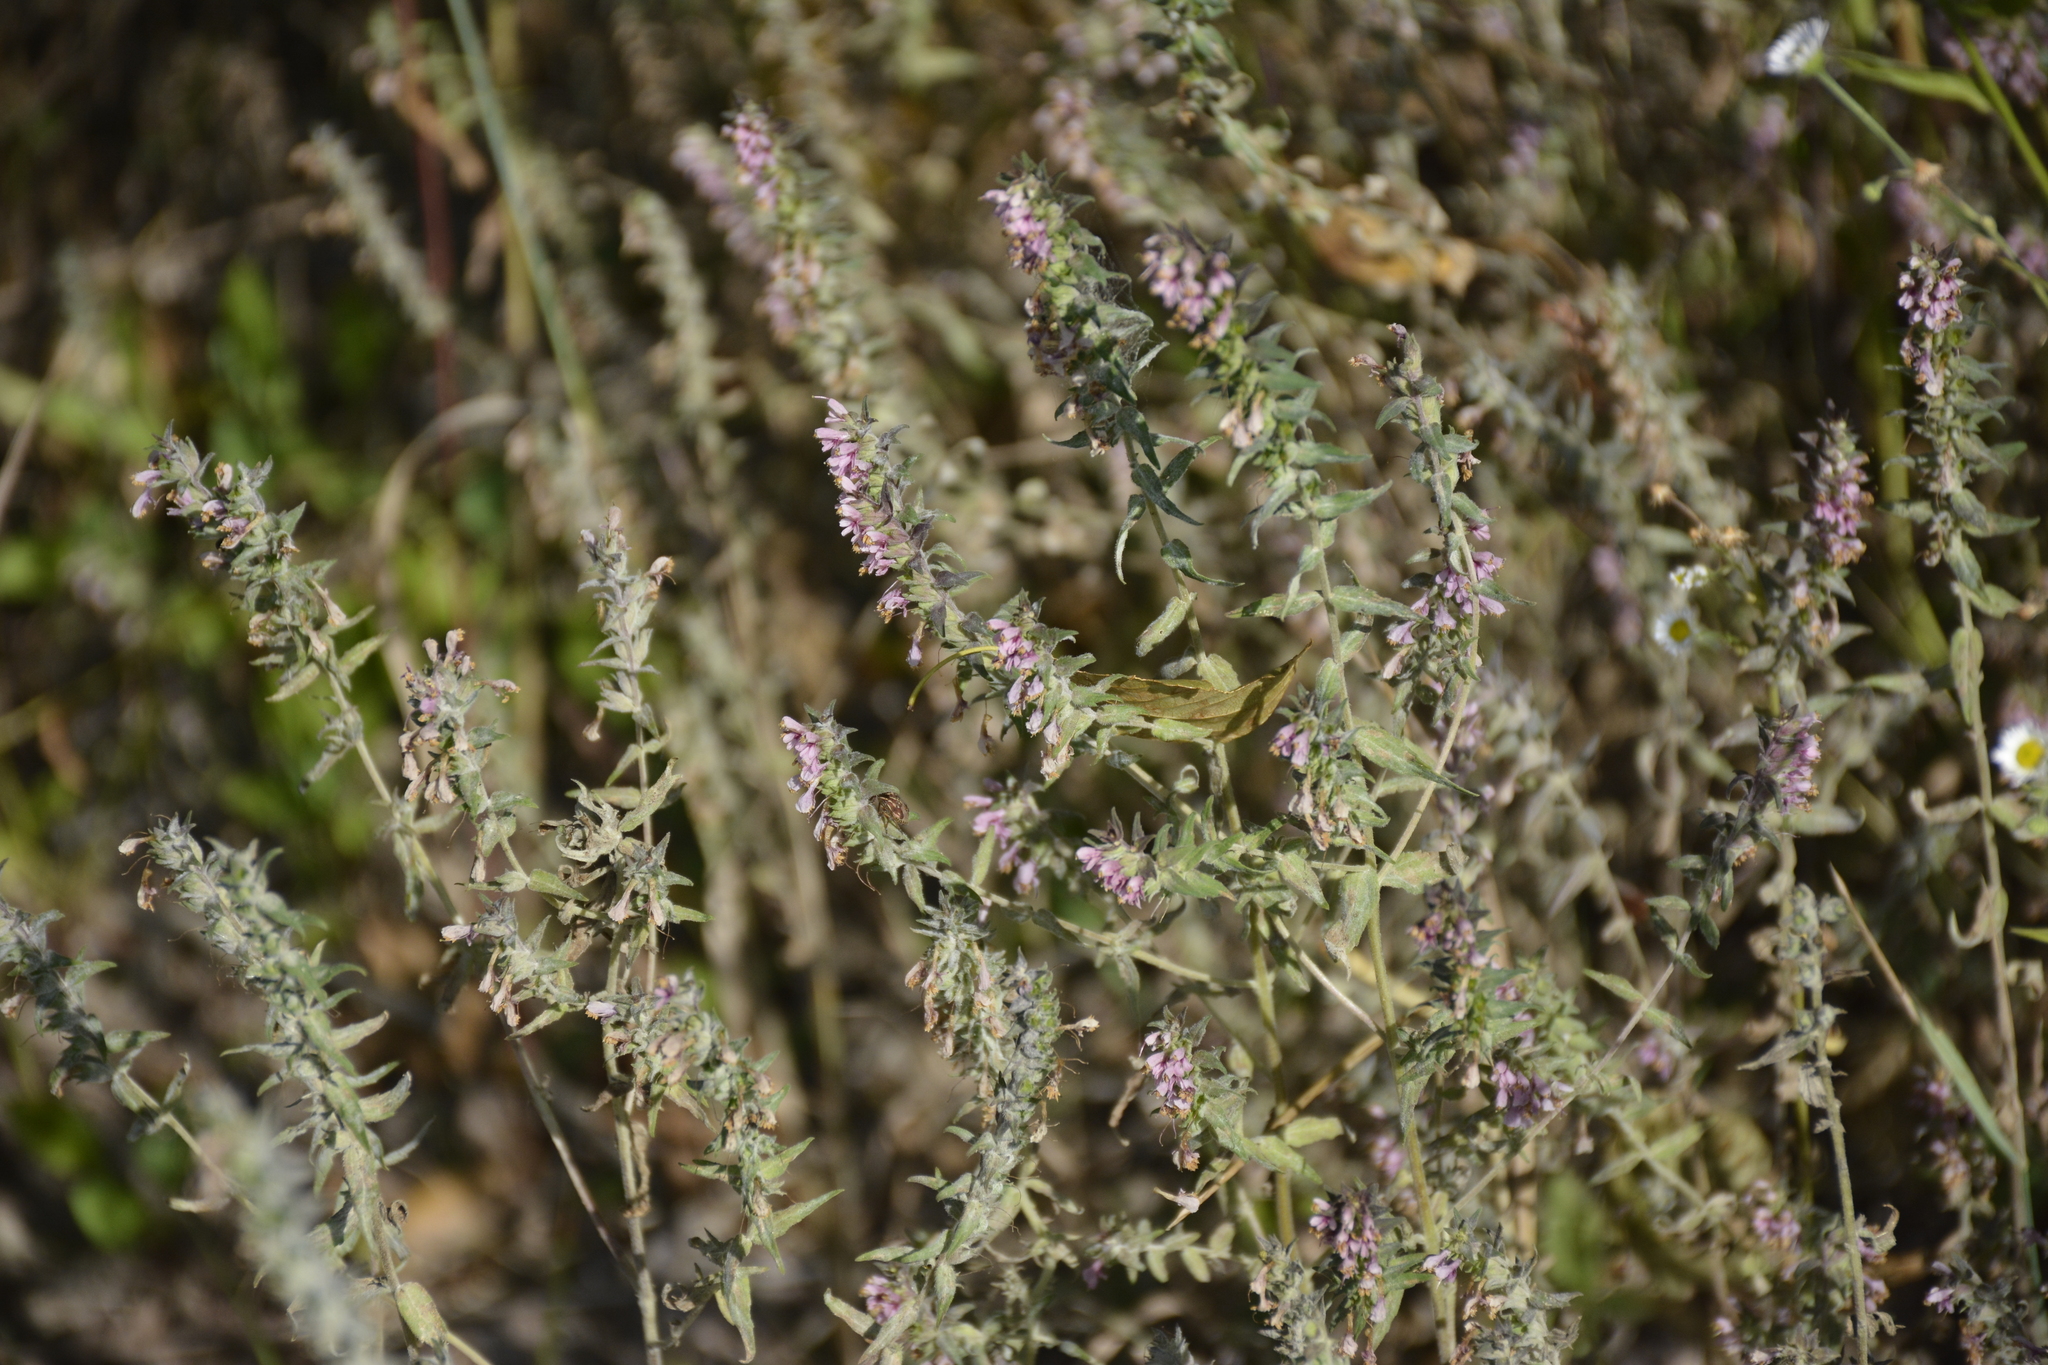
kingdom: Plantae
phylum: Tracheophyta
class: Magnoliopsida
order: Lamiales
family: Orobanchaceae
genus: Odontites
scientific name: Odontites vulgaris
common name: Broomrape
